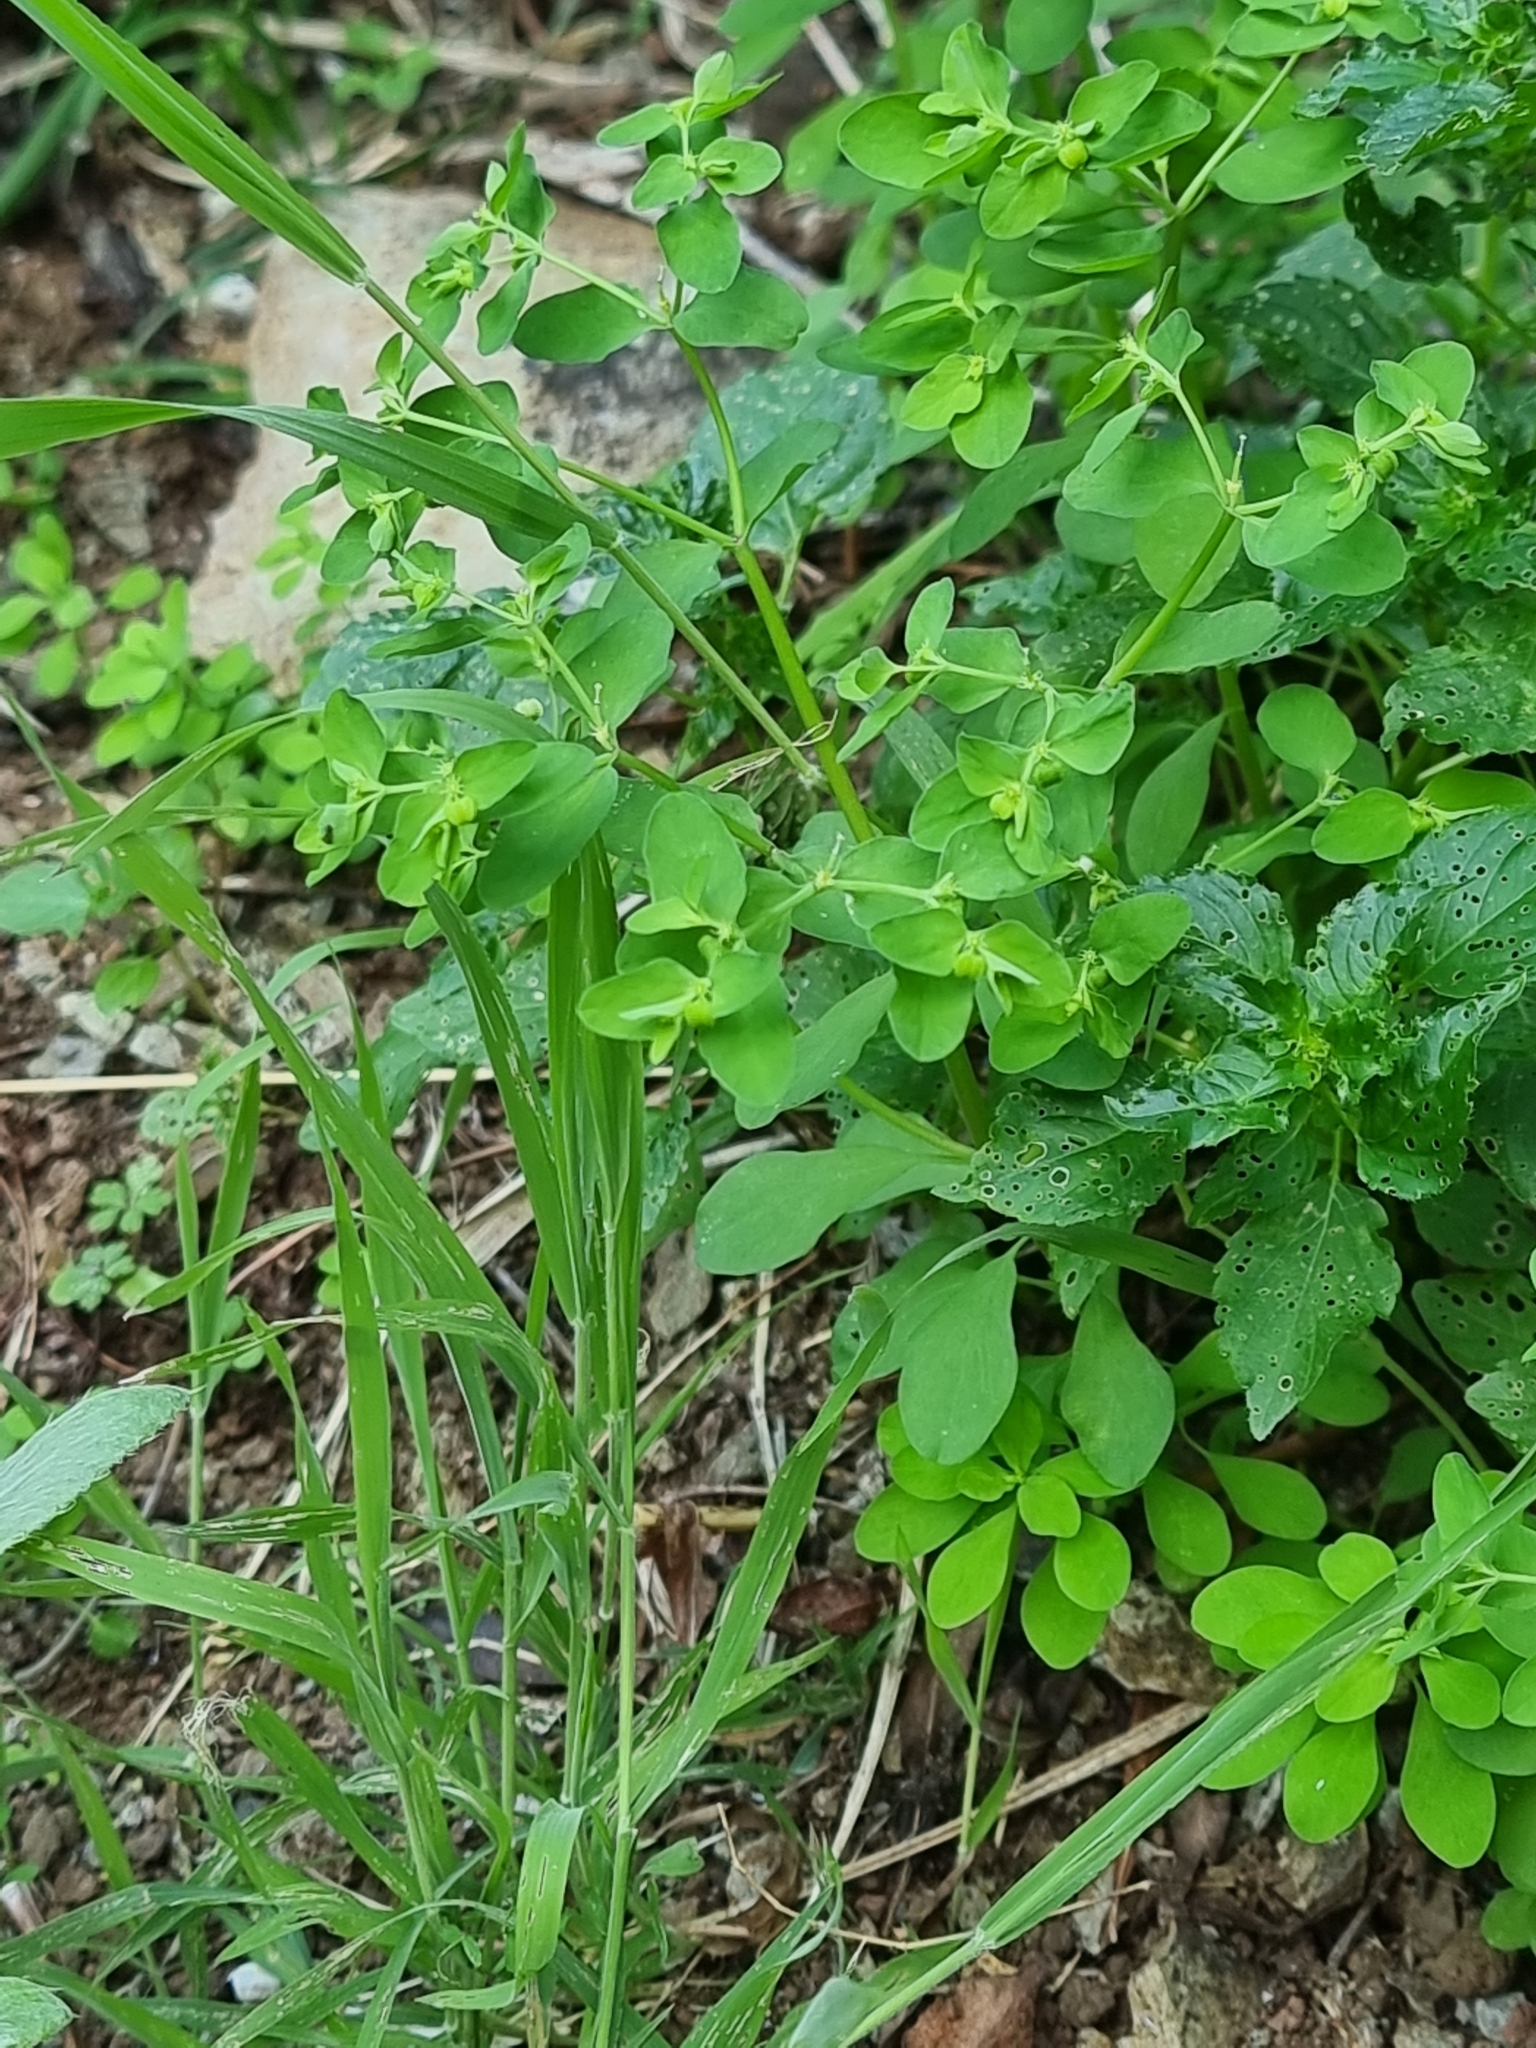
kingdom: Plantae
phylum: Tracheophyta
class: Magnoliopsida
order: Malpighiales
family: Euphorbiaceae
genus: Euphorbia
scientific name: Euphorbia peplus
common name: Petty spurge
